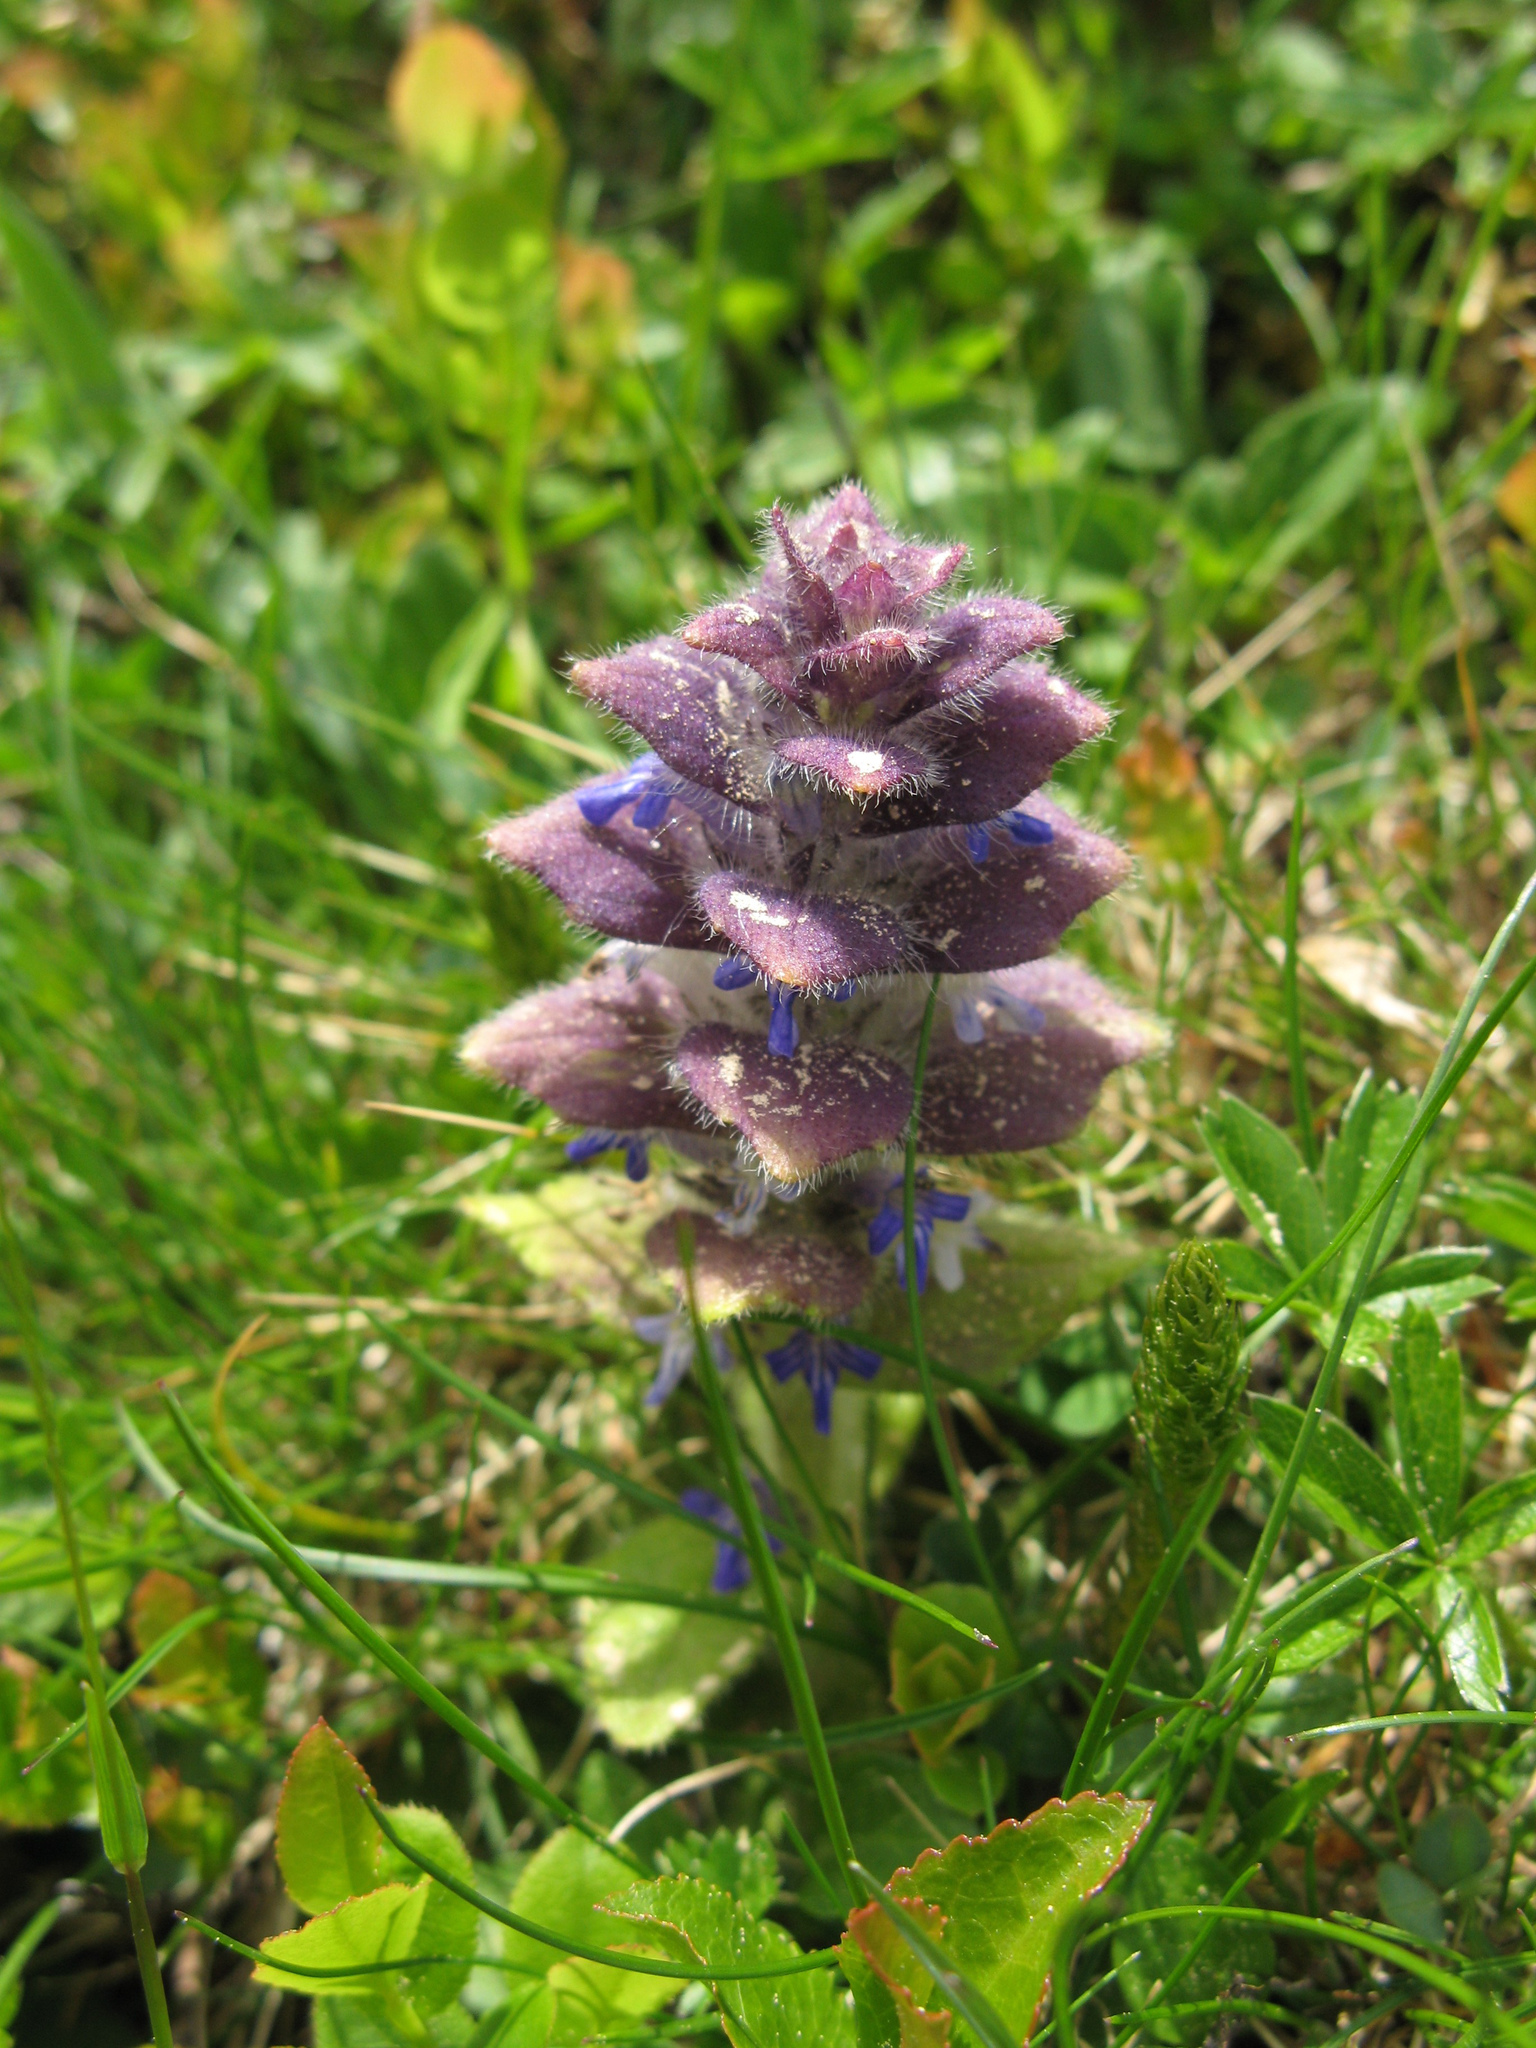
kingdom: Plantae
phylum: Tracheophyta
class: Magnoliopsida
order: Lamiales
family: Lamiaceae
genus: Ajuga
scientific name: Ajuga pyramidalis
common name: Pyramid bugle
